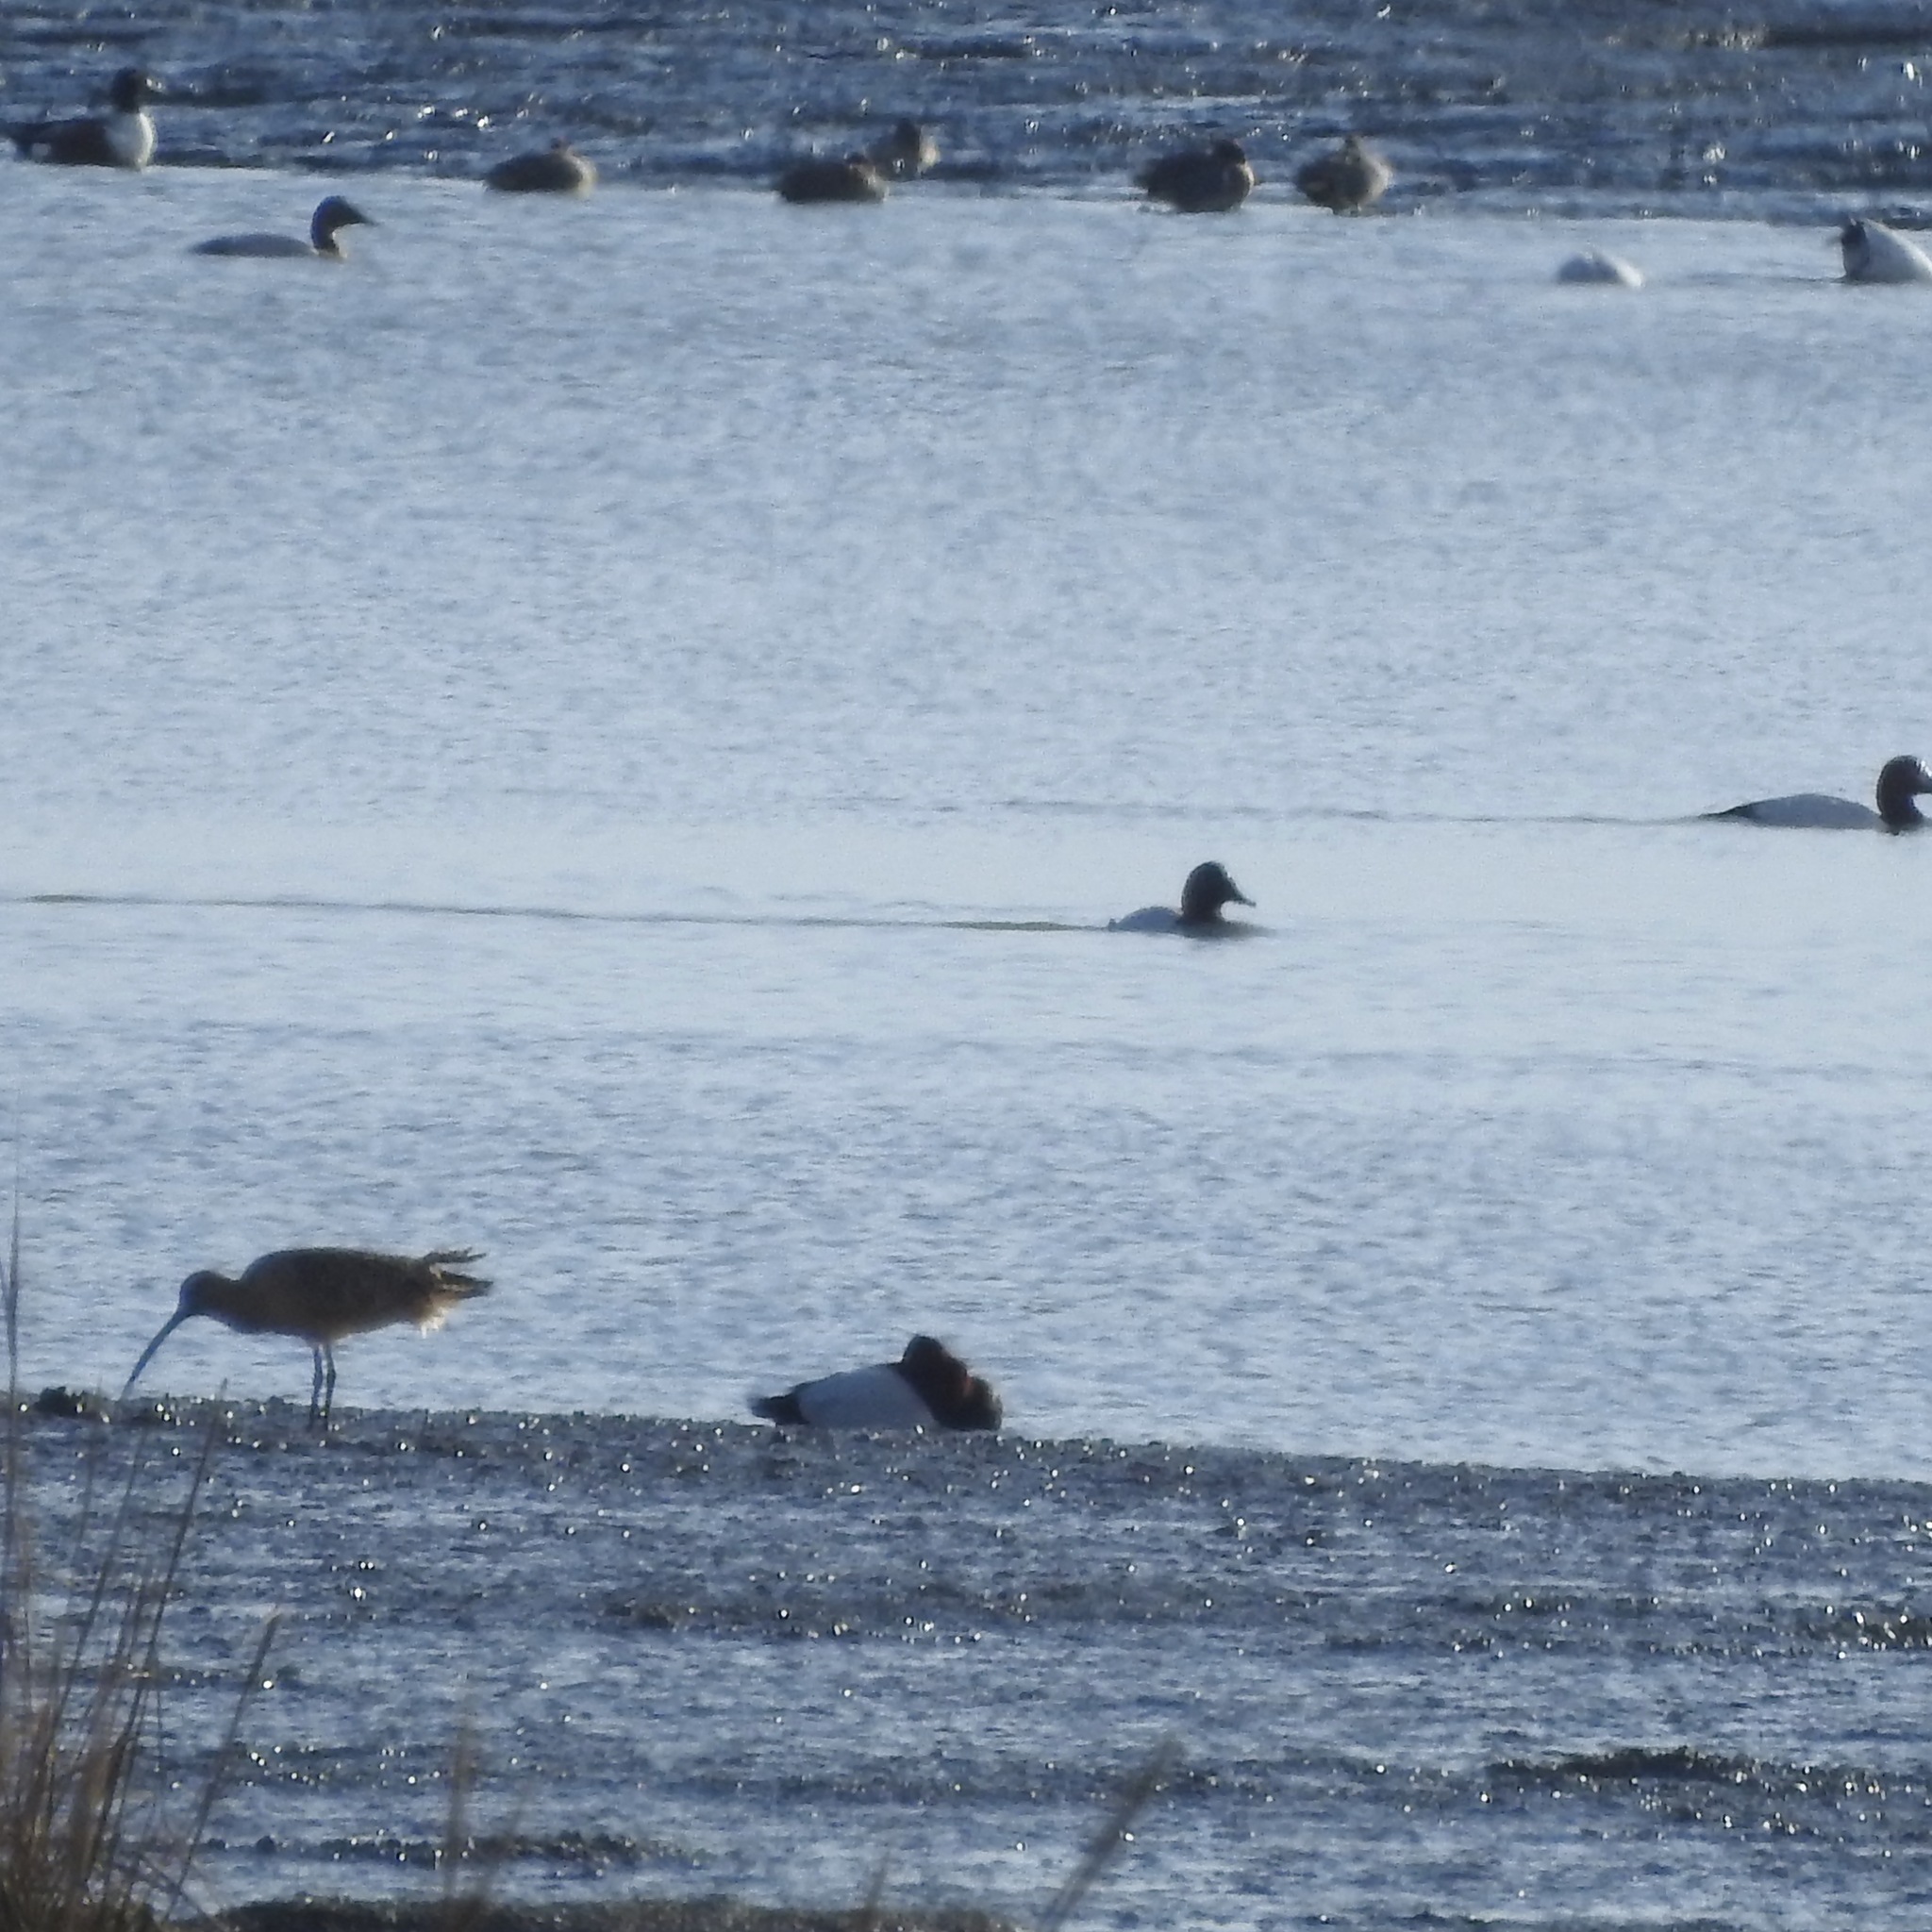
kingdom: Animalia
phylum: Chordata
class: Aves
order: Charadriiformes
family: Scolopacidae
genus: Numenius
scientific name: Numenius americanus
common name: Long-billed curlew
